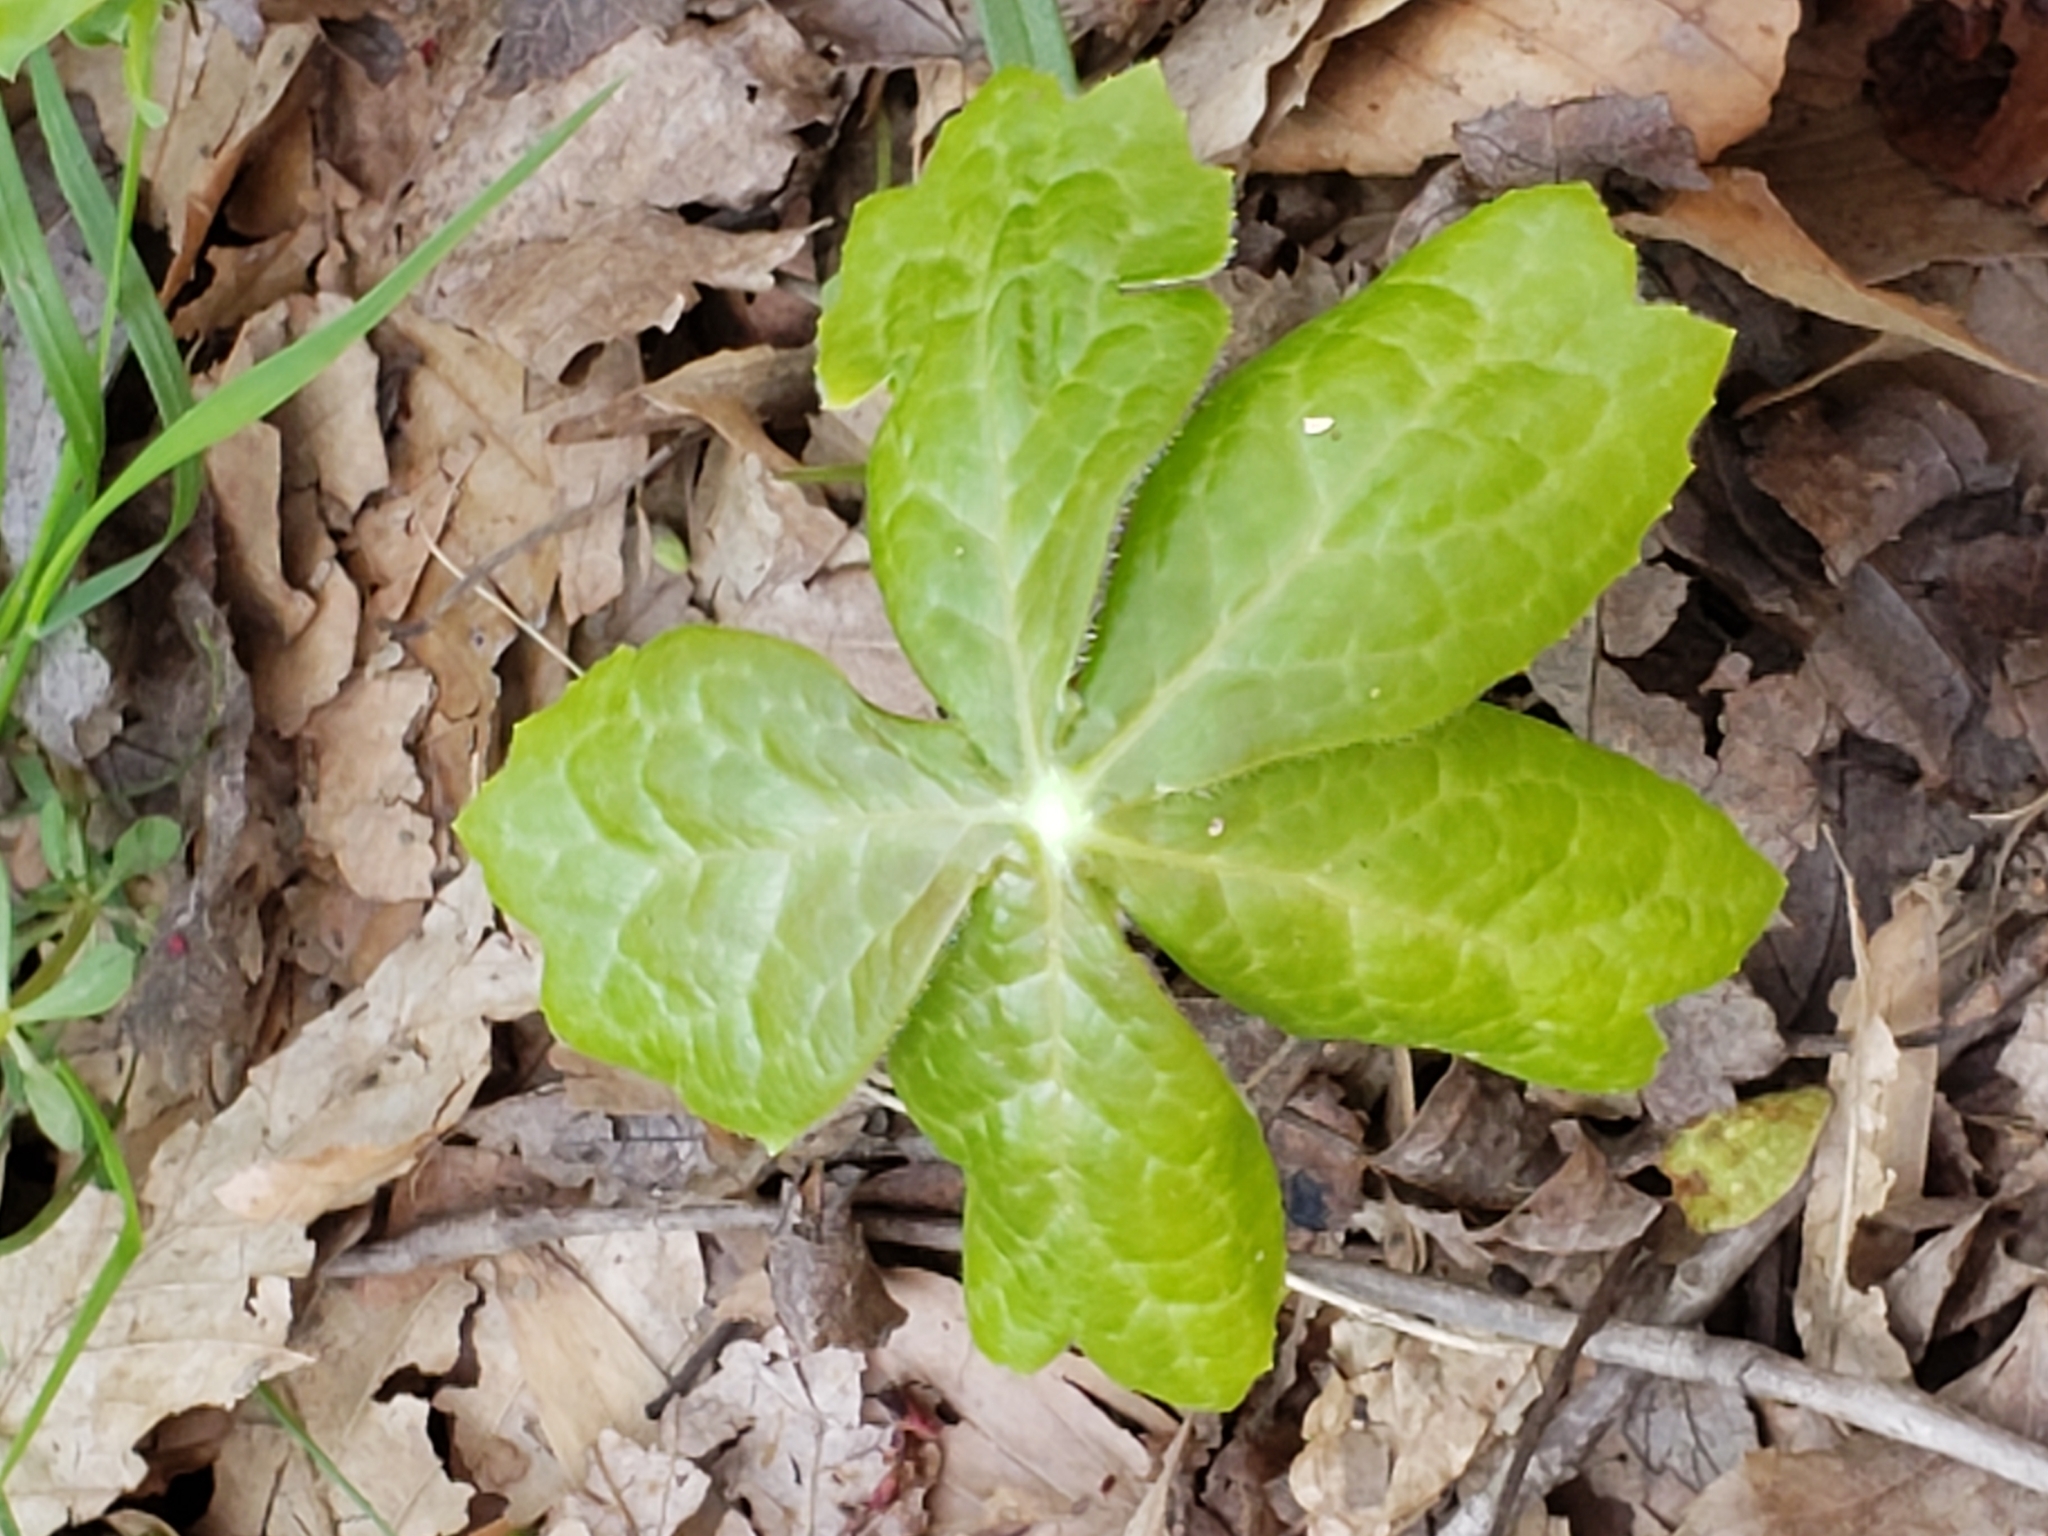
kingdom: Plantae
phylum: Tracheophyta
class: Magnoliopsida
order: Ranunculales
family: Berberidaceae
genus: Podophyllum
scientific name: Podophyllum peltatum
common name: Wild mandrake
